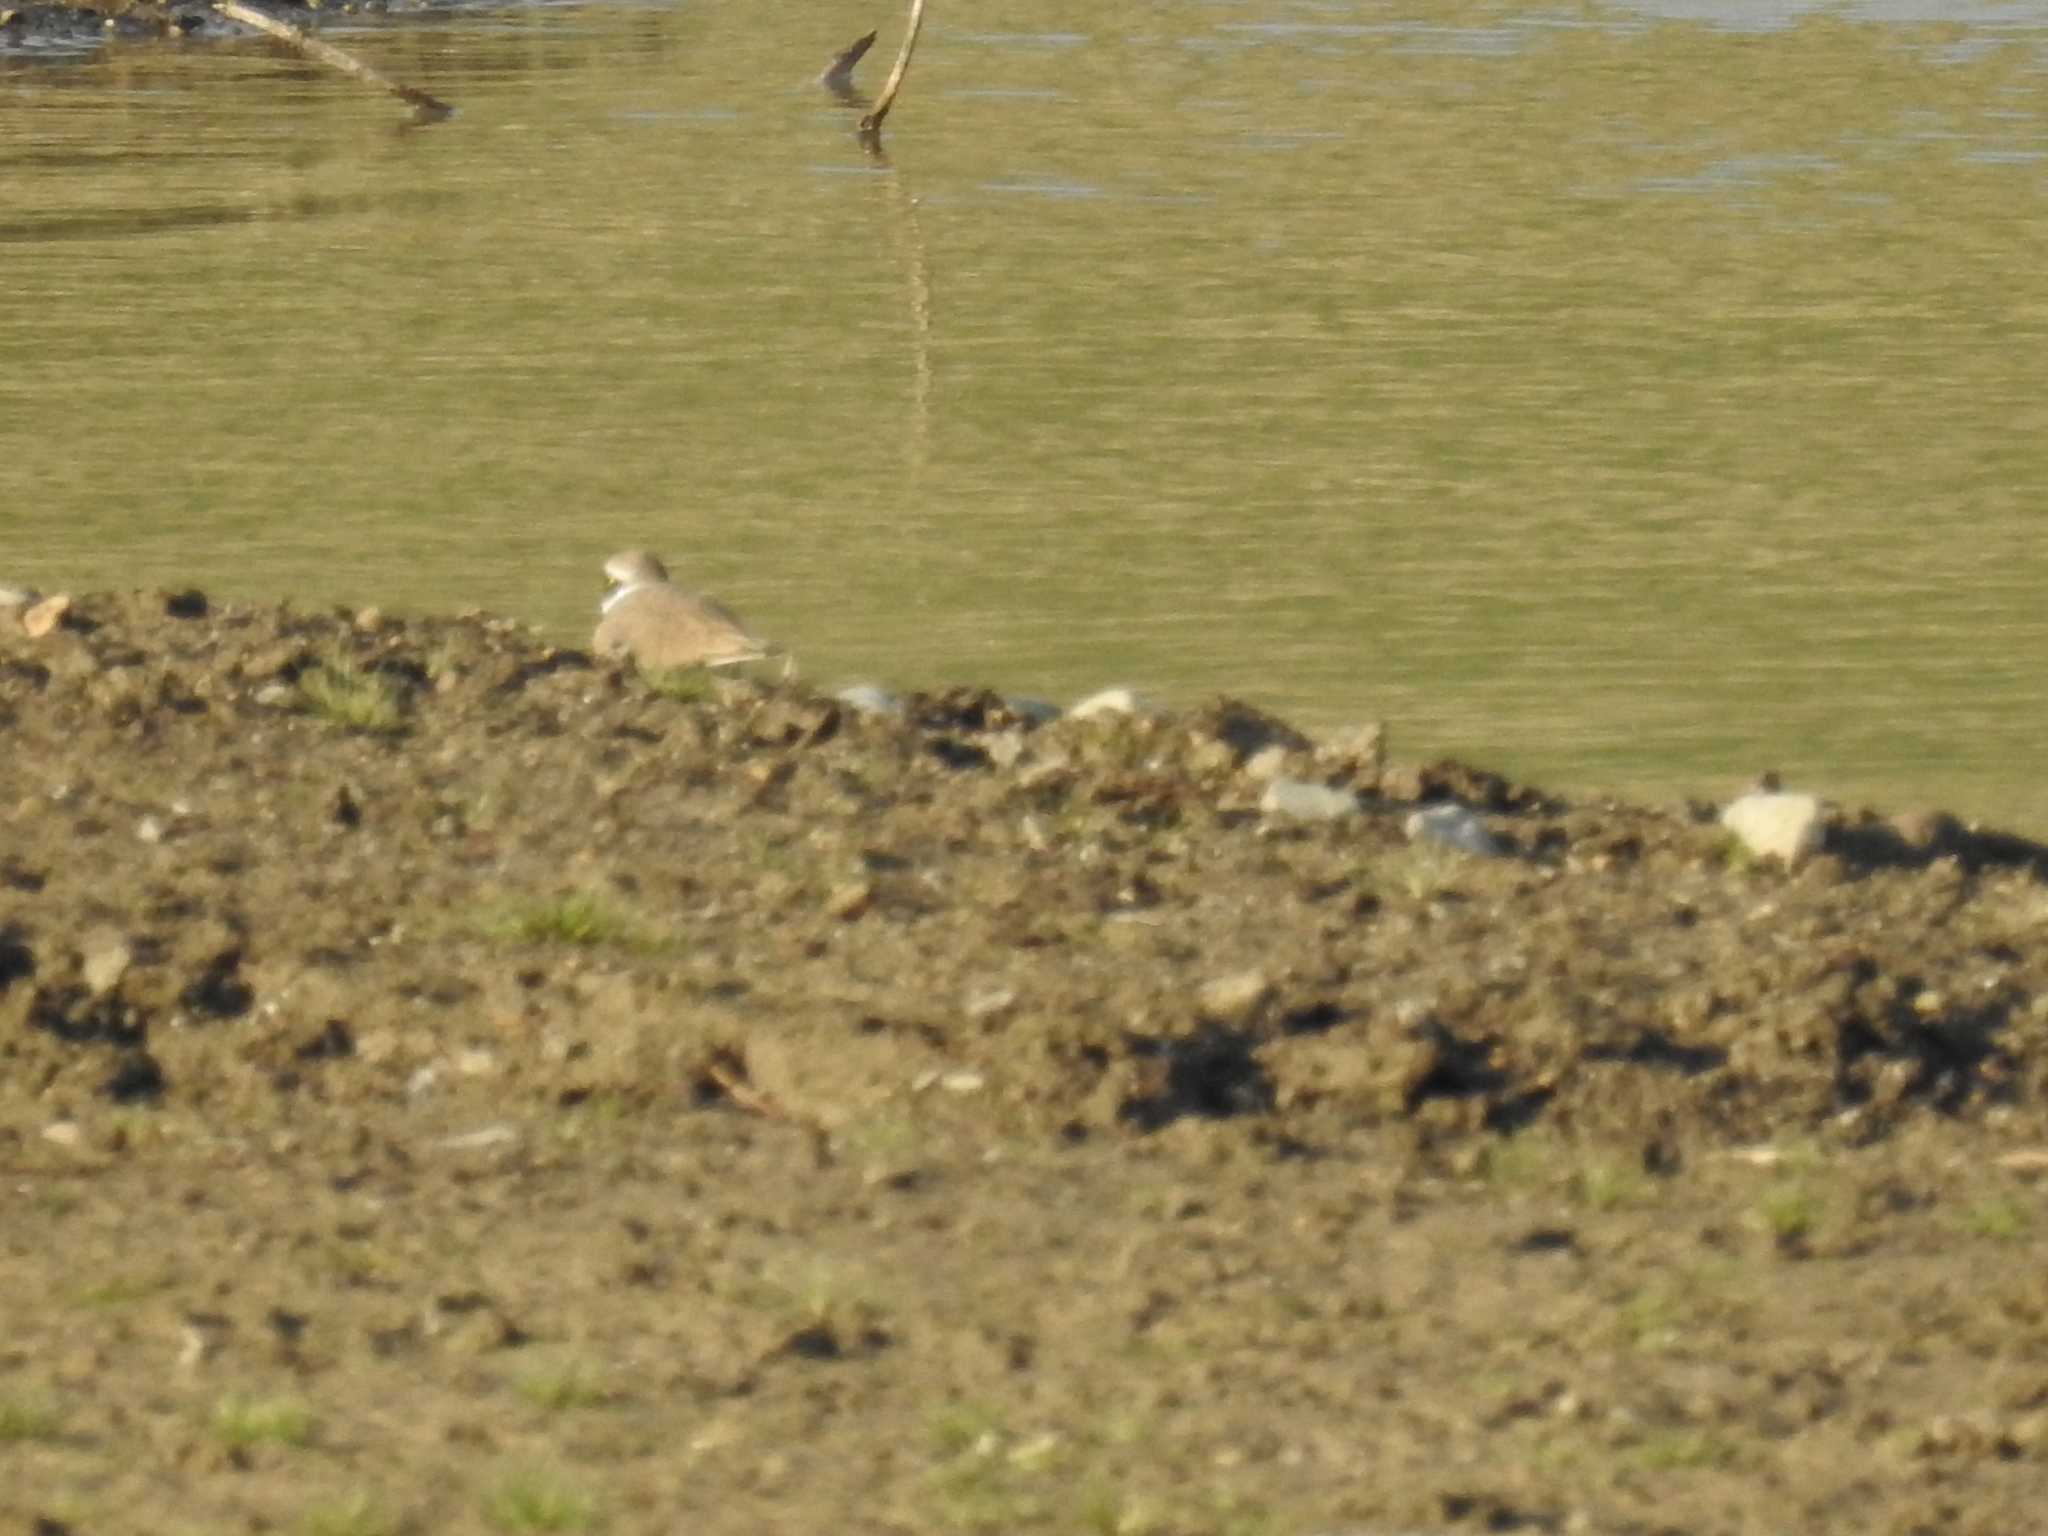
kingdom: Animalia
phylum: Chordata
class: Aves
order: Charadriiformes
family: Charadriidae
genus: Charadrius
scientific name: Charadrius dubius
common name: Little ringed plover
